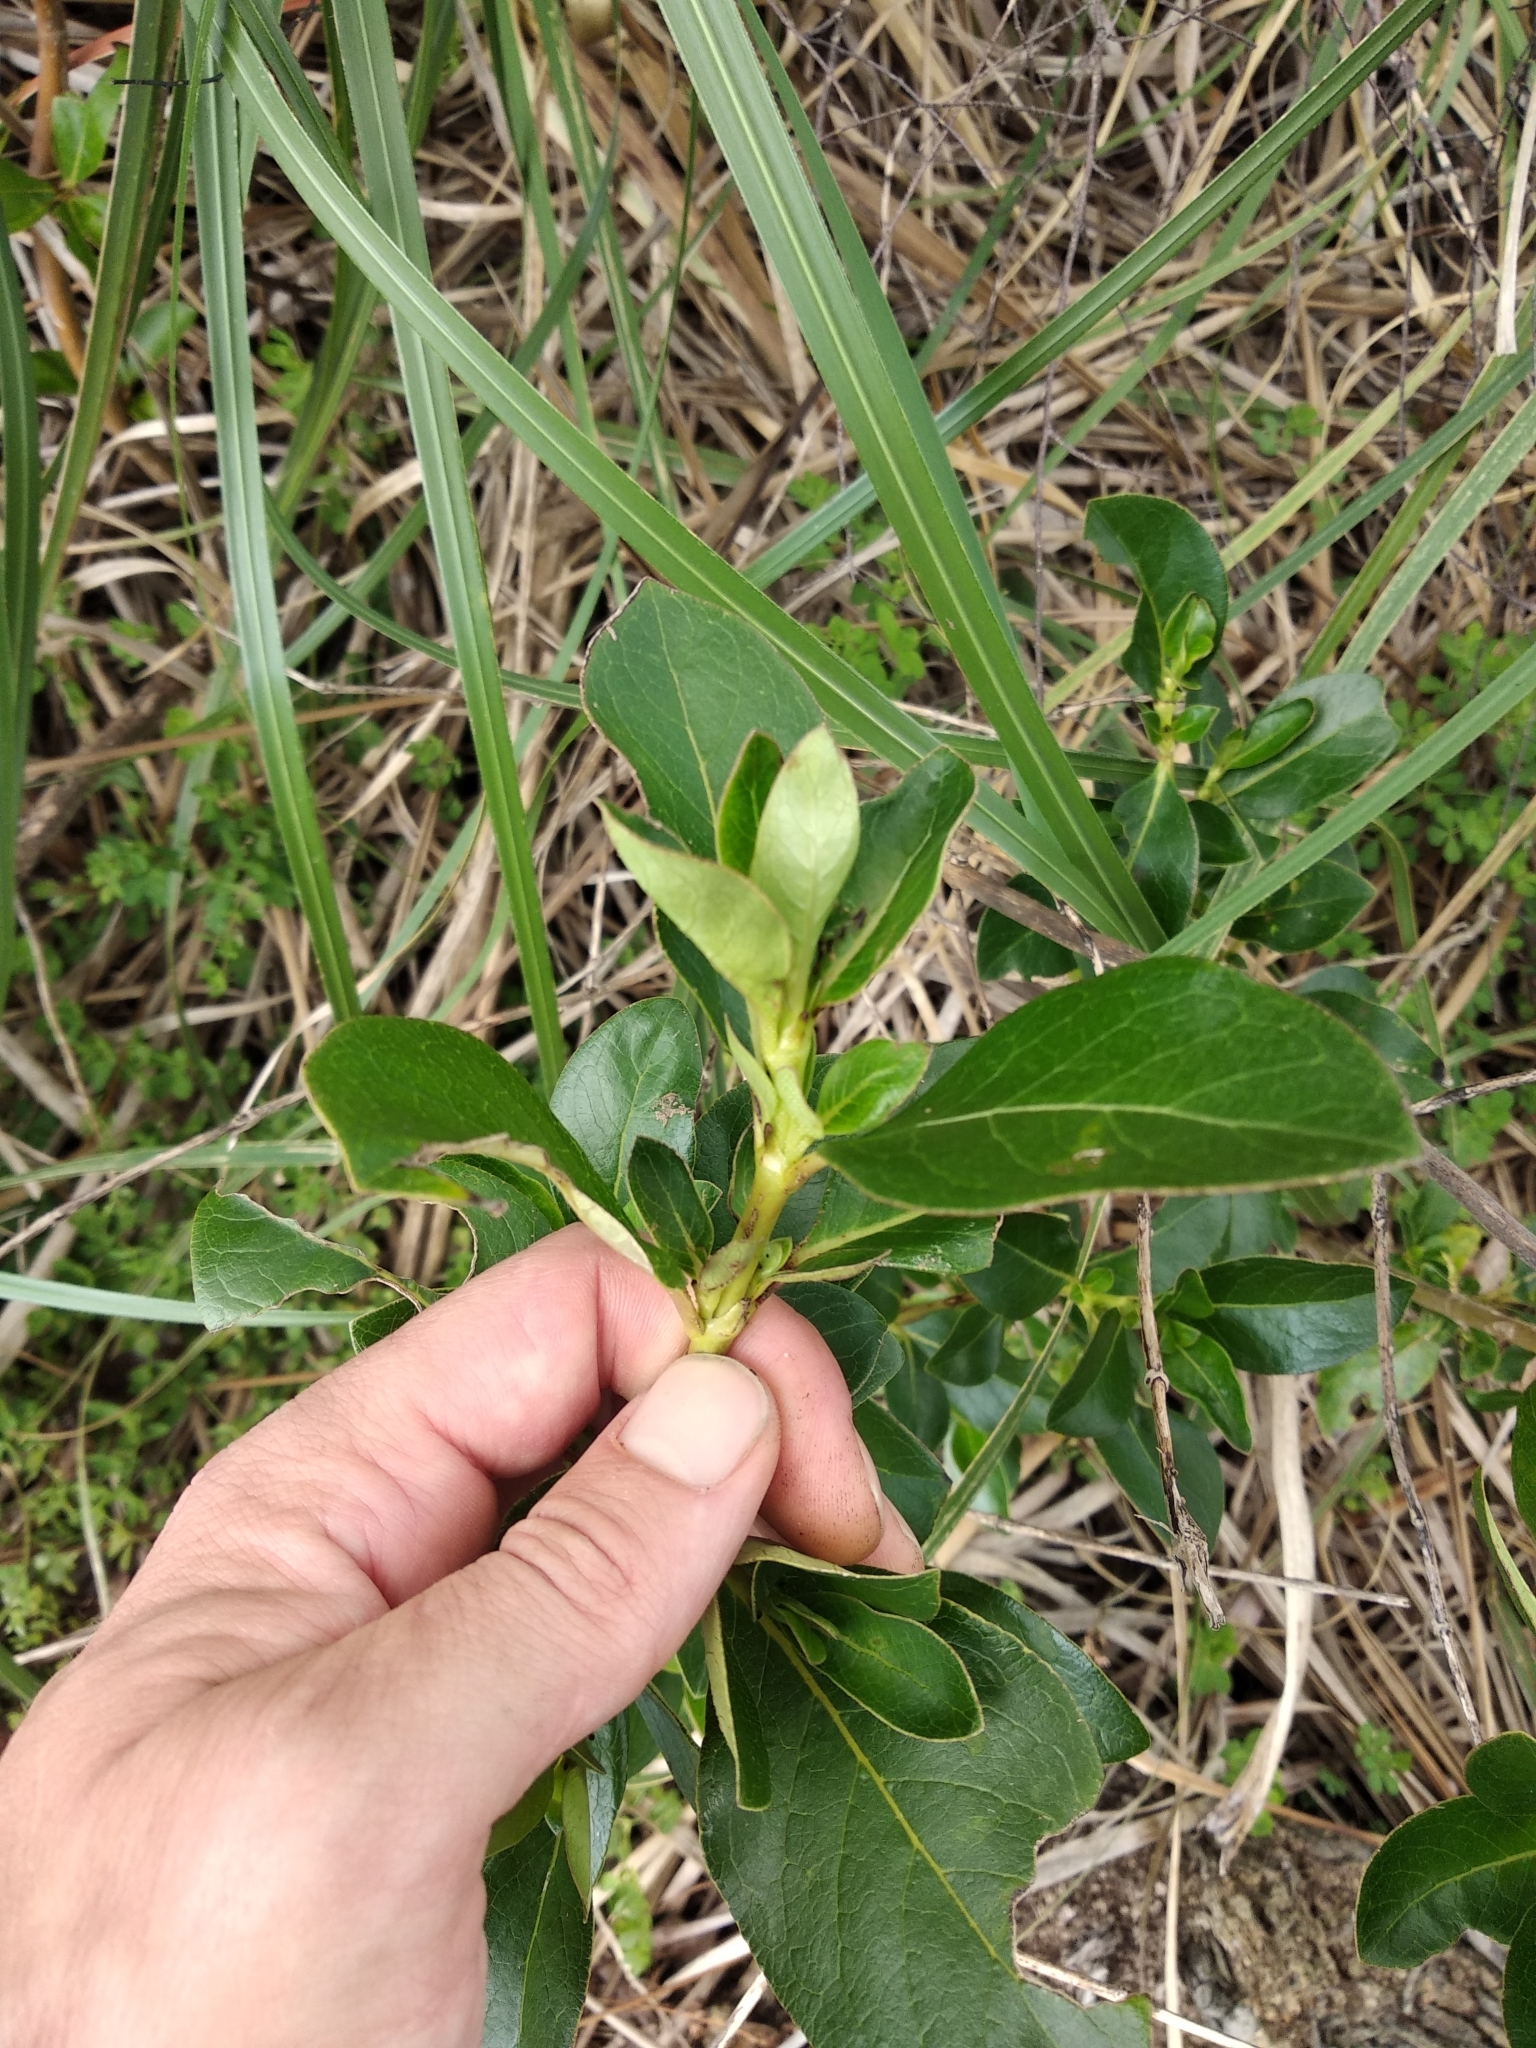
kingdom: Plantae
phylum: Tracheophyta
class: Magnoliopsida
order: Gentianales
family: Rubiaceae
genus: Coprosma
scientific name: Coprosma robusta
